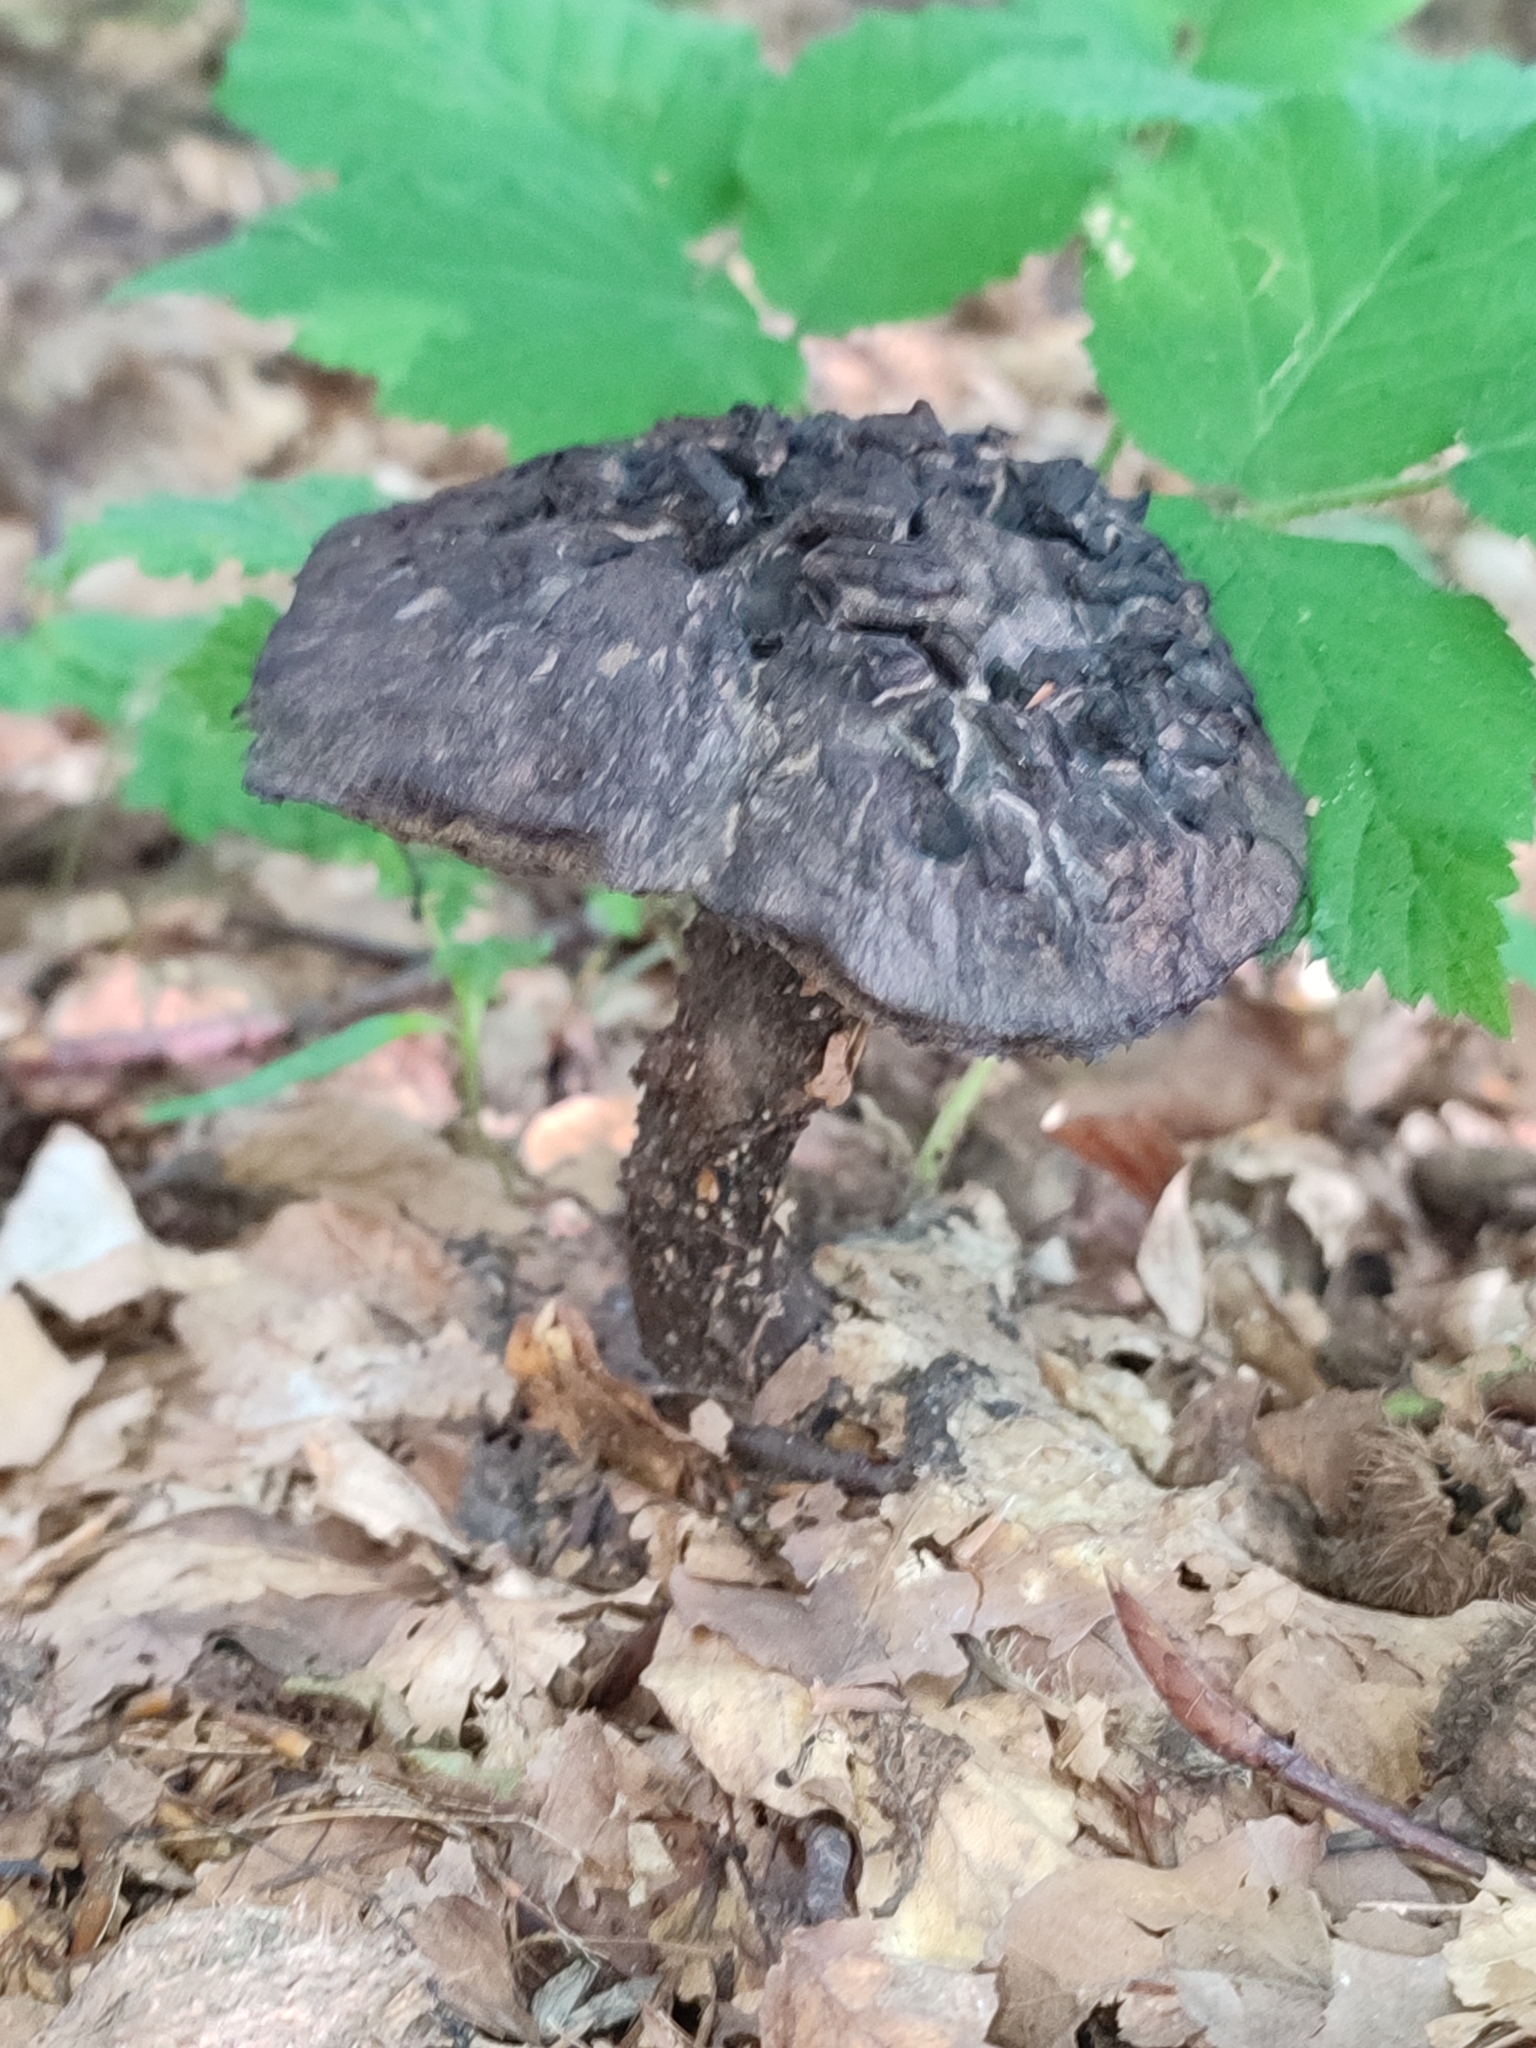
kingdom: Fungi
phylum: Basidiomycota
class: Agaricomycetes
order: Boletales
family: Boletaceae
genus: Strobilomyces
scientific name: Strobilomyces strobilaceus
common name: Old man of the woods
